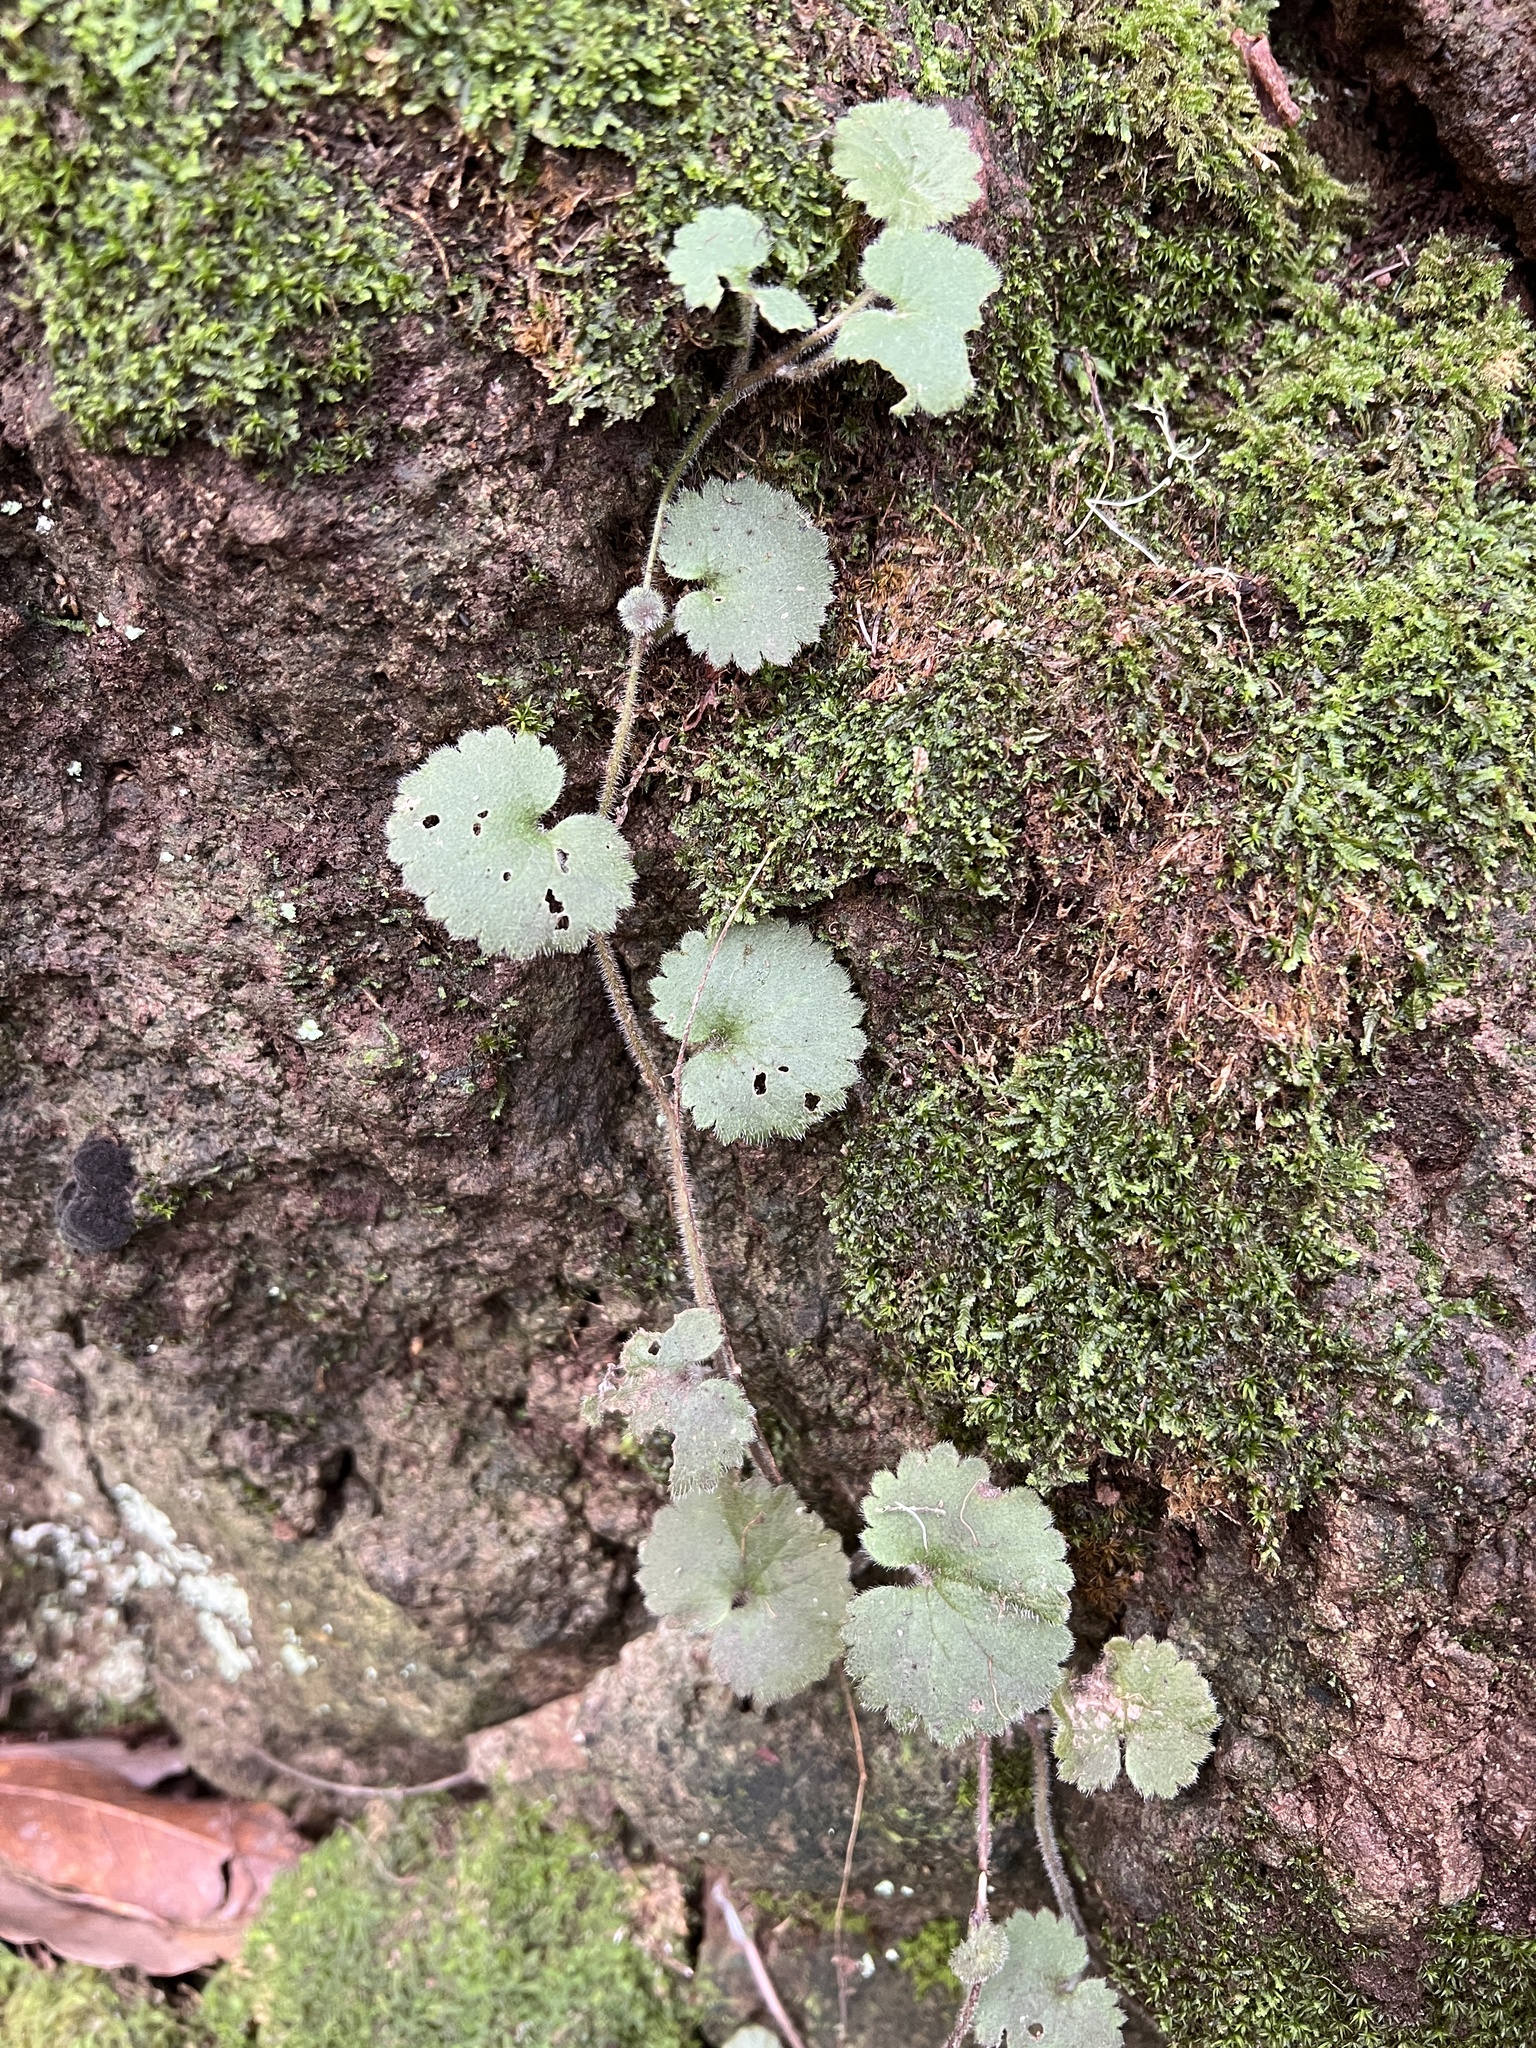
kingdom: Plantae
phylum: Tracheophyta
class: Magnoliopsida
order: Lamiales
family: Plantaginaceae
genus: Sibthorpia
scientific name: Sibthorpia peregrina
